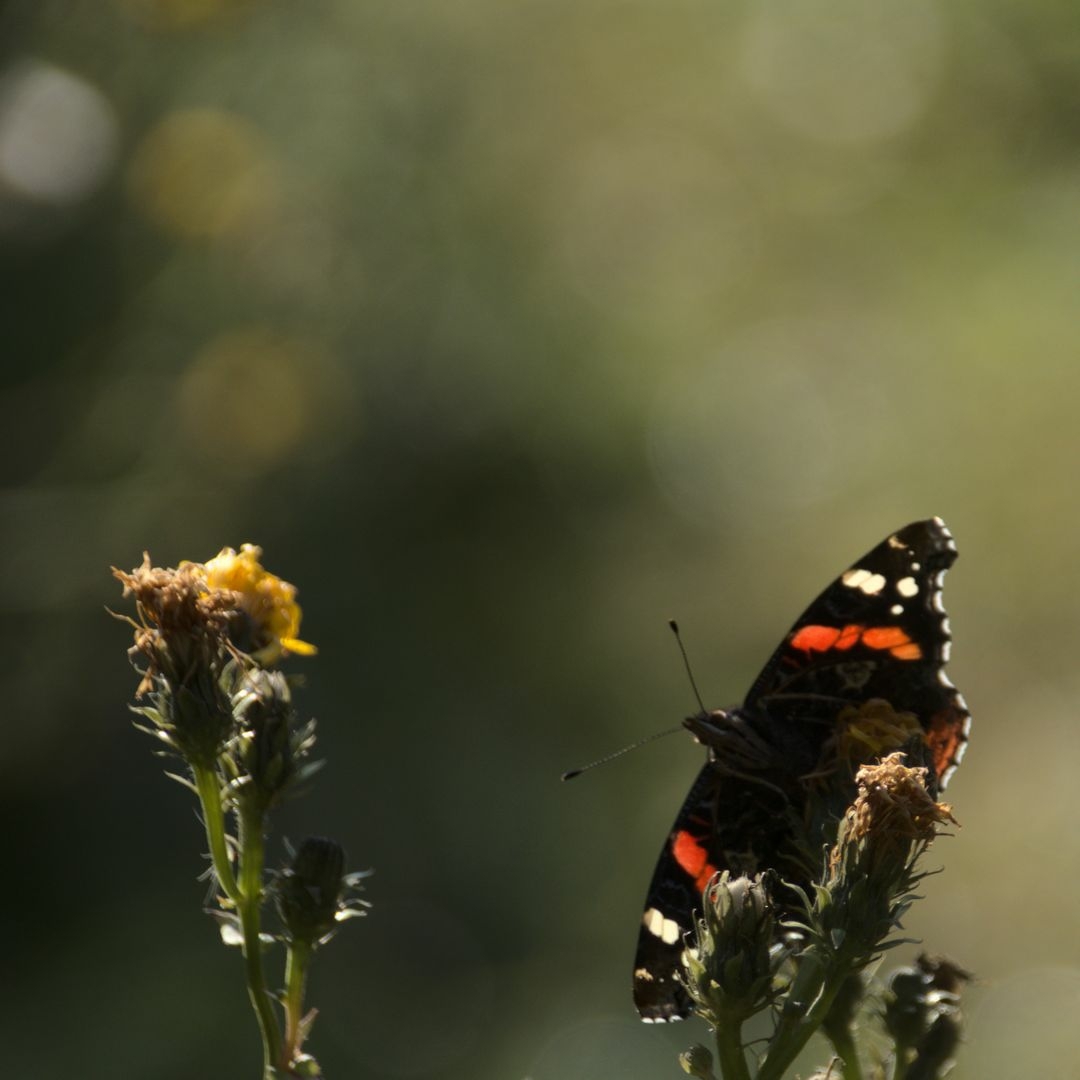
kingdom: Animalia
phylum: Arthropoda
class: Insecta
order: Lepidoptera
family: Nymphalidae
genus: Vanessa
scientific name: Vanessa atalanta
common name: Red admiral
